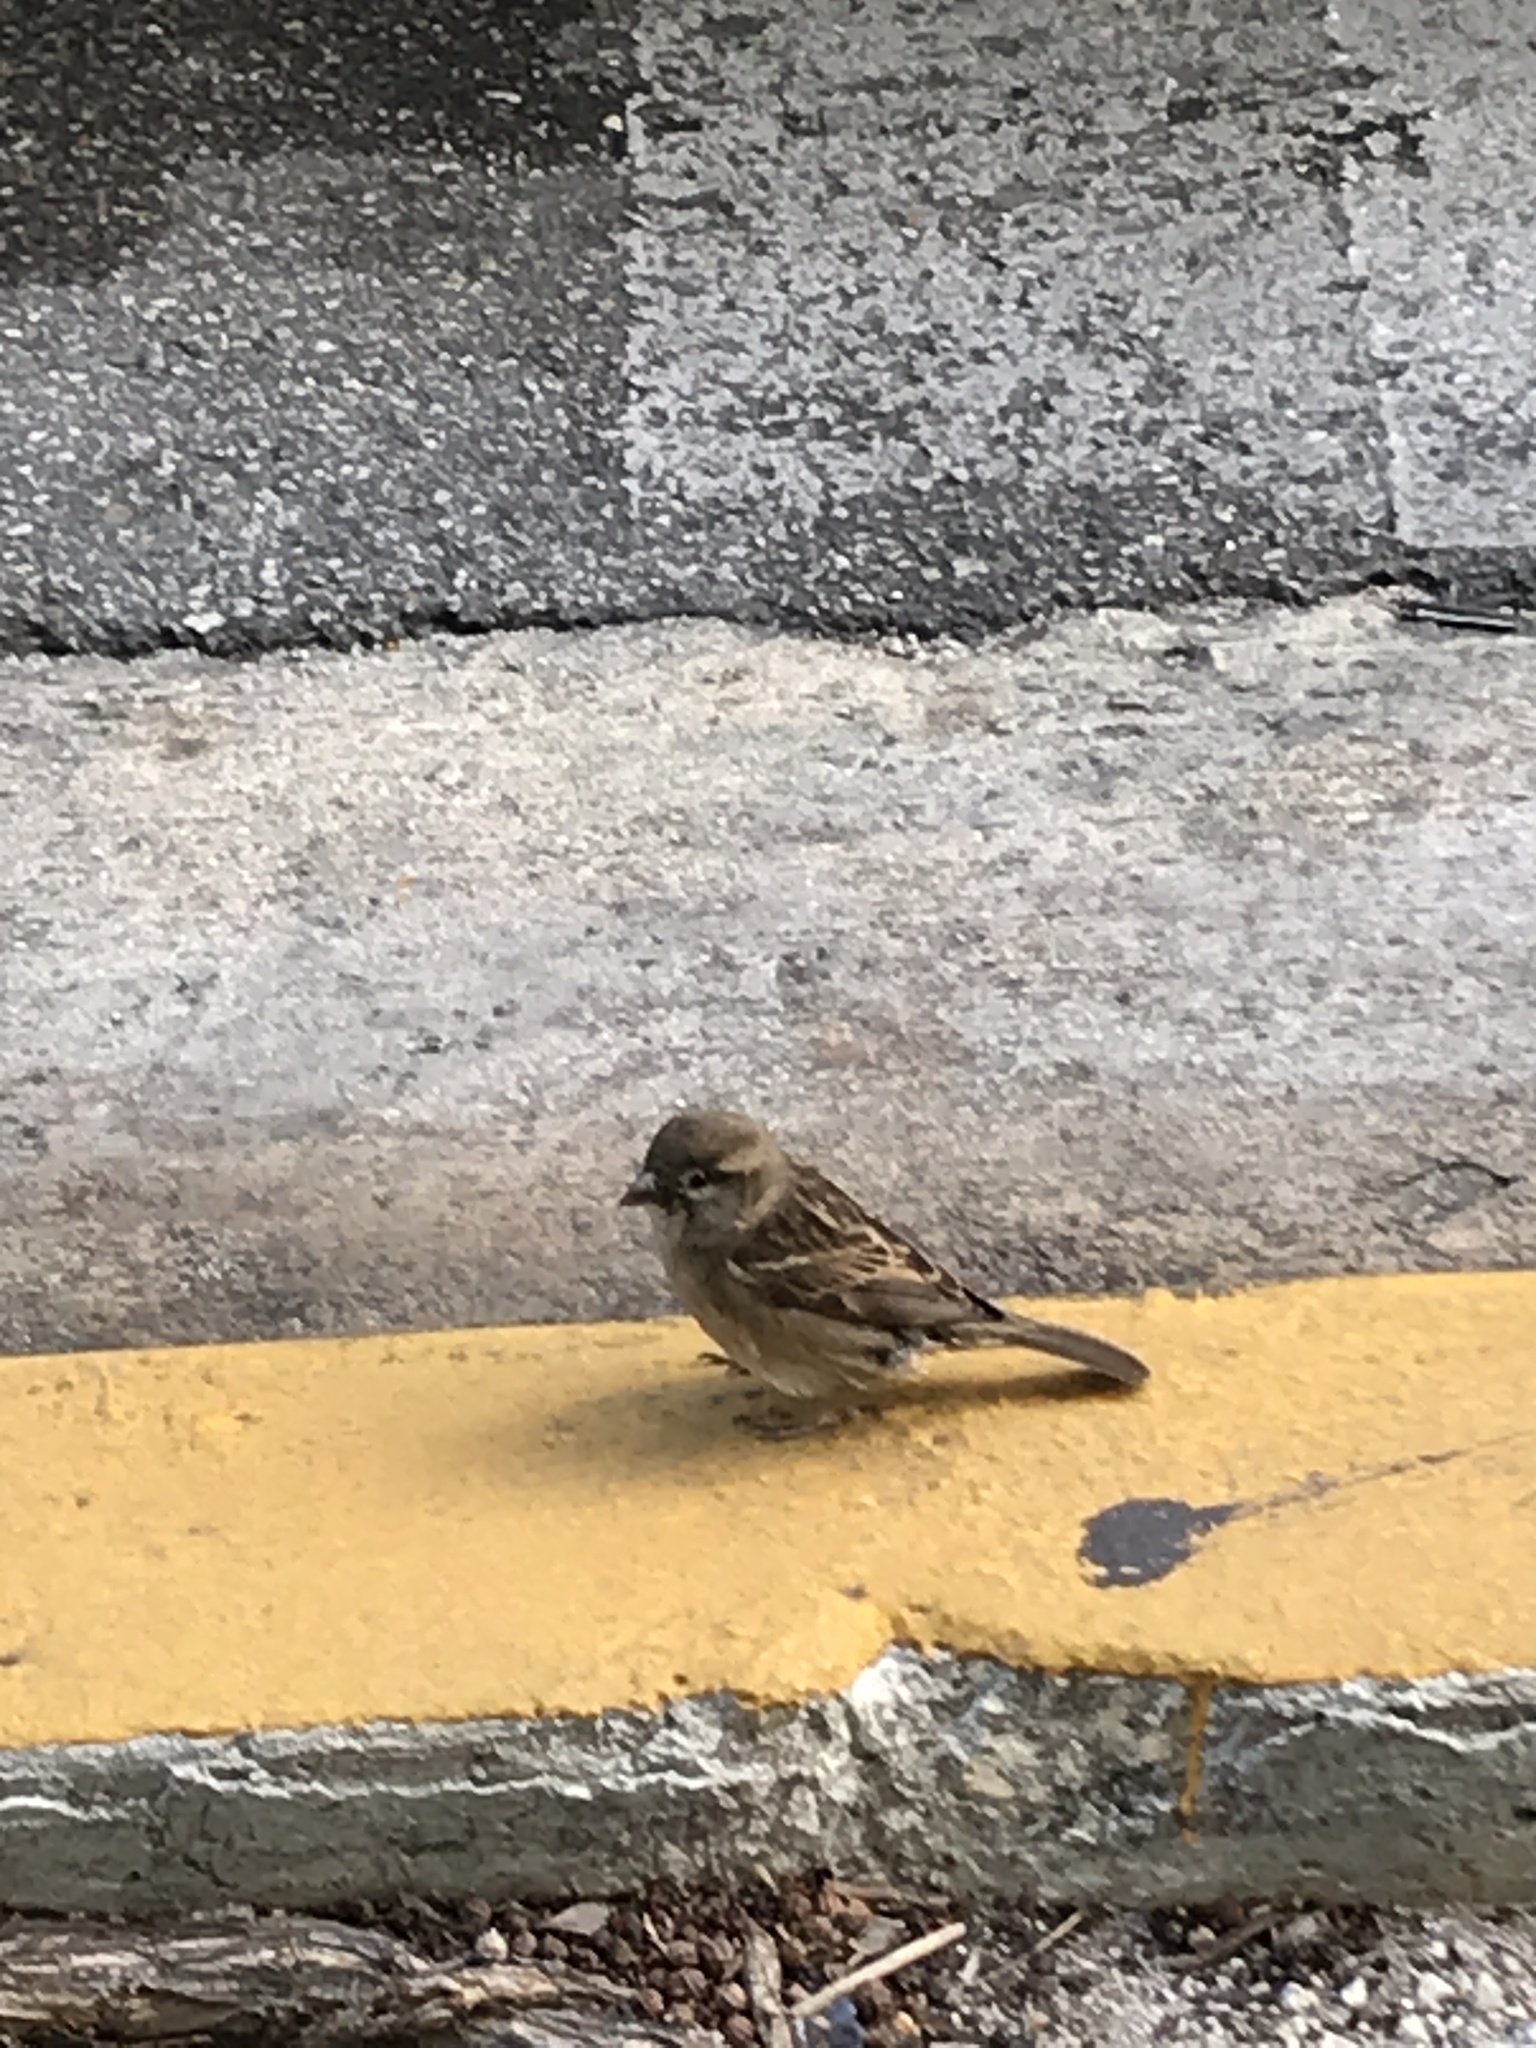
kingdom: Animalia
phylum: Chordata
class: Aves
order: Passeriformes
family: Passeridae
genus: Passer
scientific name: Passer domesticus
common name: House sparrow
